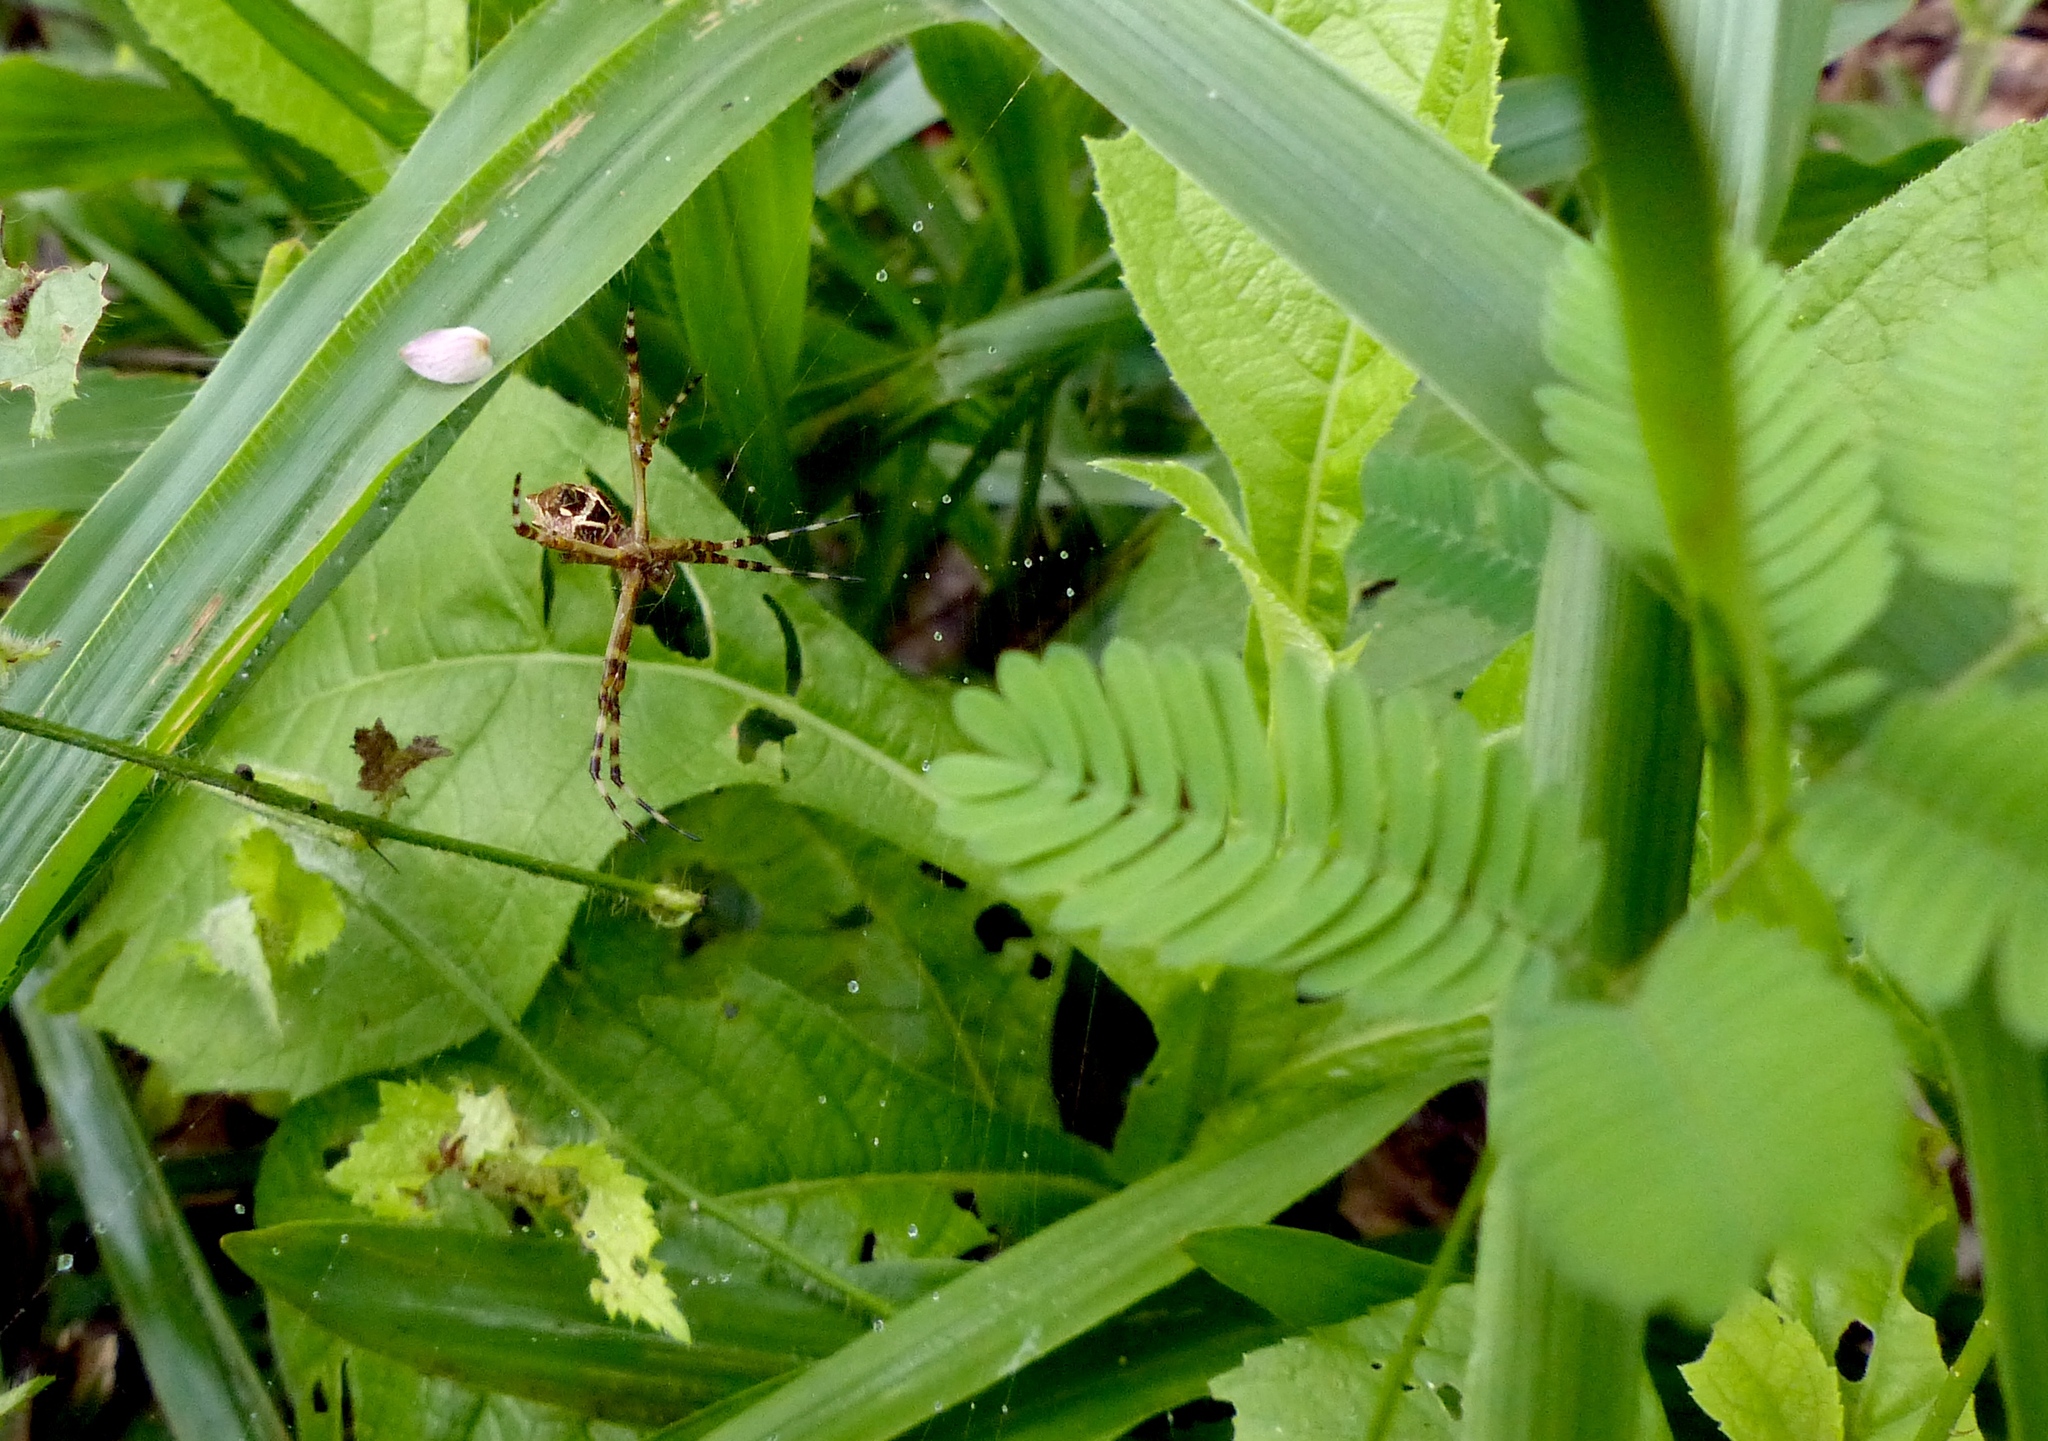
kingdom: Animalia
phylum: Arthropoda
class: Arachnida
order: Araneae
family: Araneidae
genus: Argiope
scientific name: Argiope argentata
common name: Orb weavers
